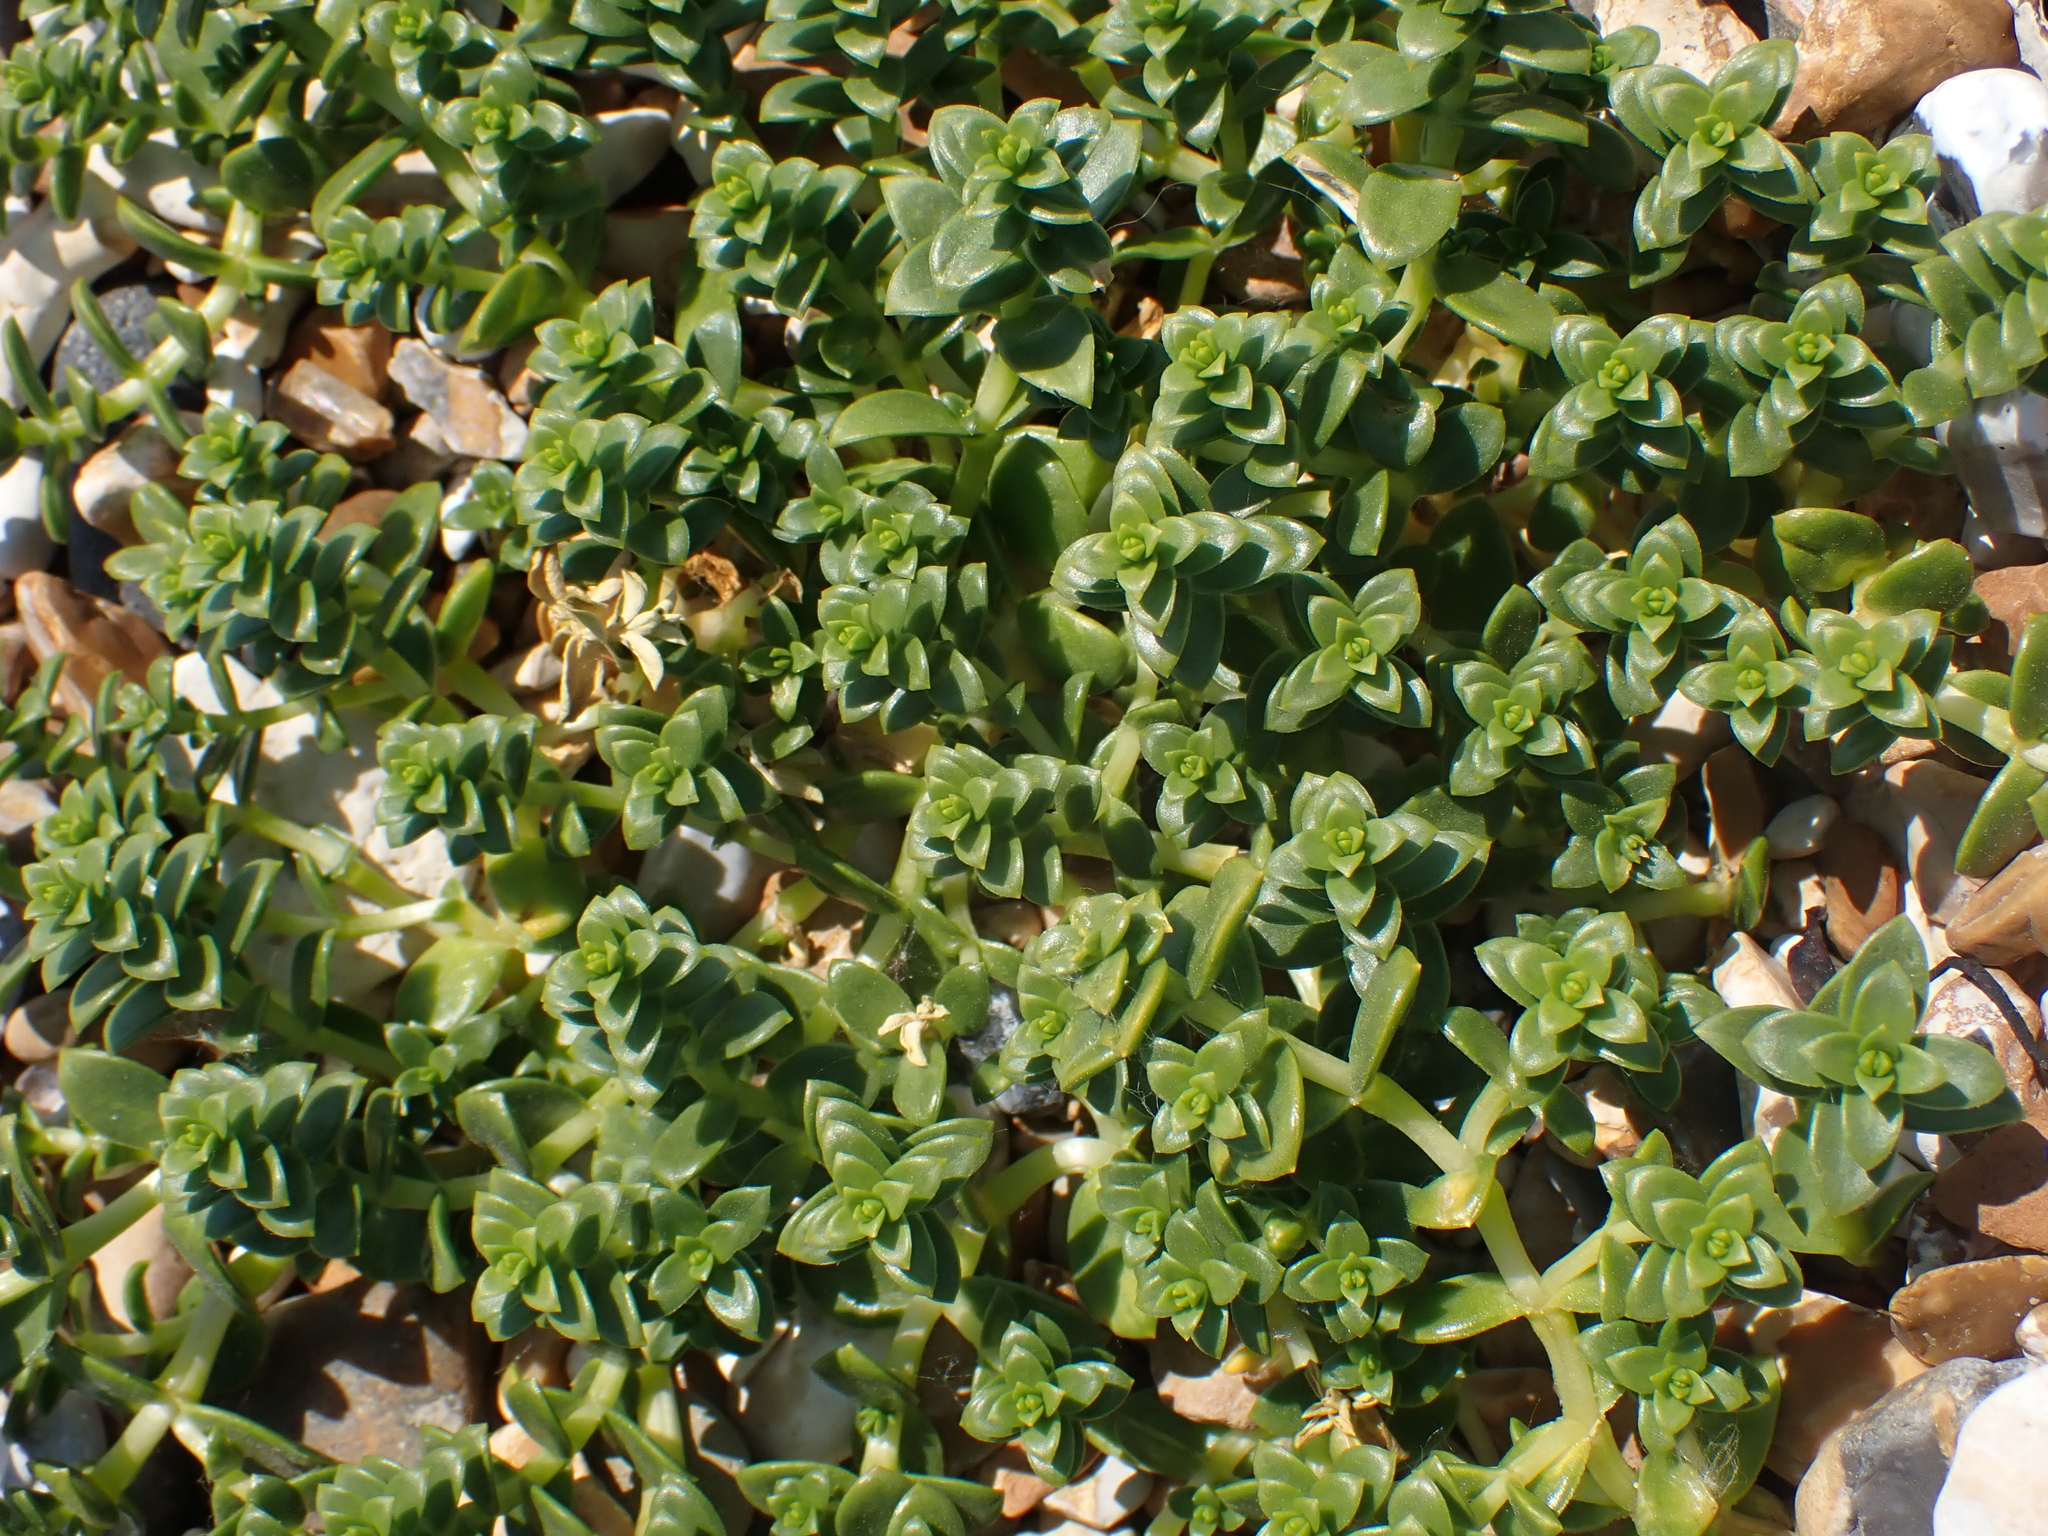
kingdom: Plantae
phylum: Tracheophyta
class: Magnoliopsida
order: Caryophyllales
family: Caryophyllaceae
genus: Honckenya
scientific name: Honckenya peploides
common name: Sea sandwort
